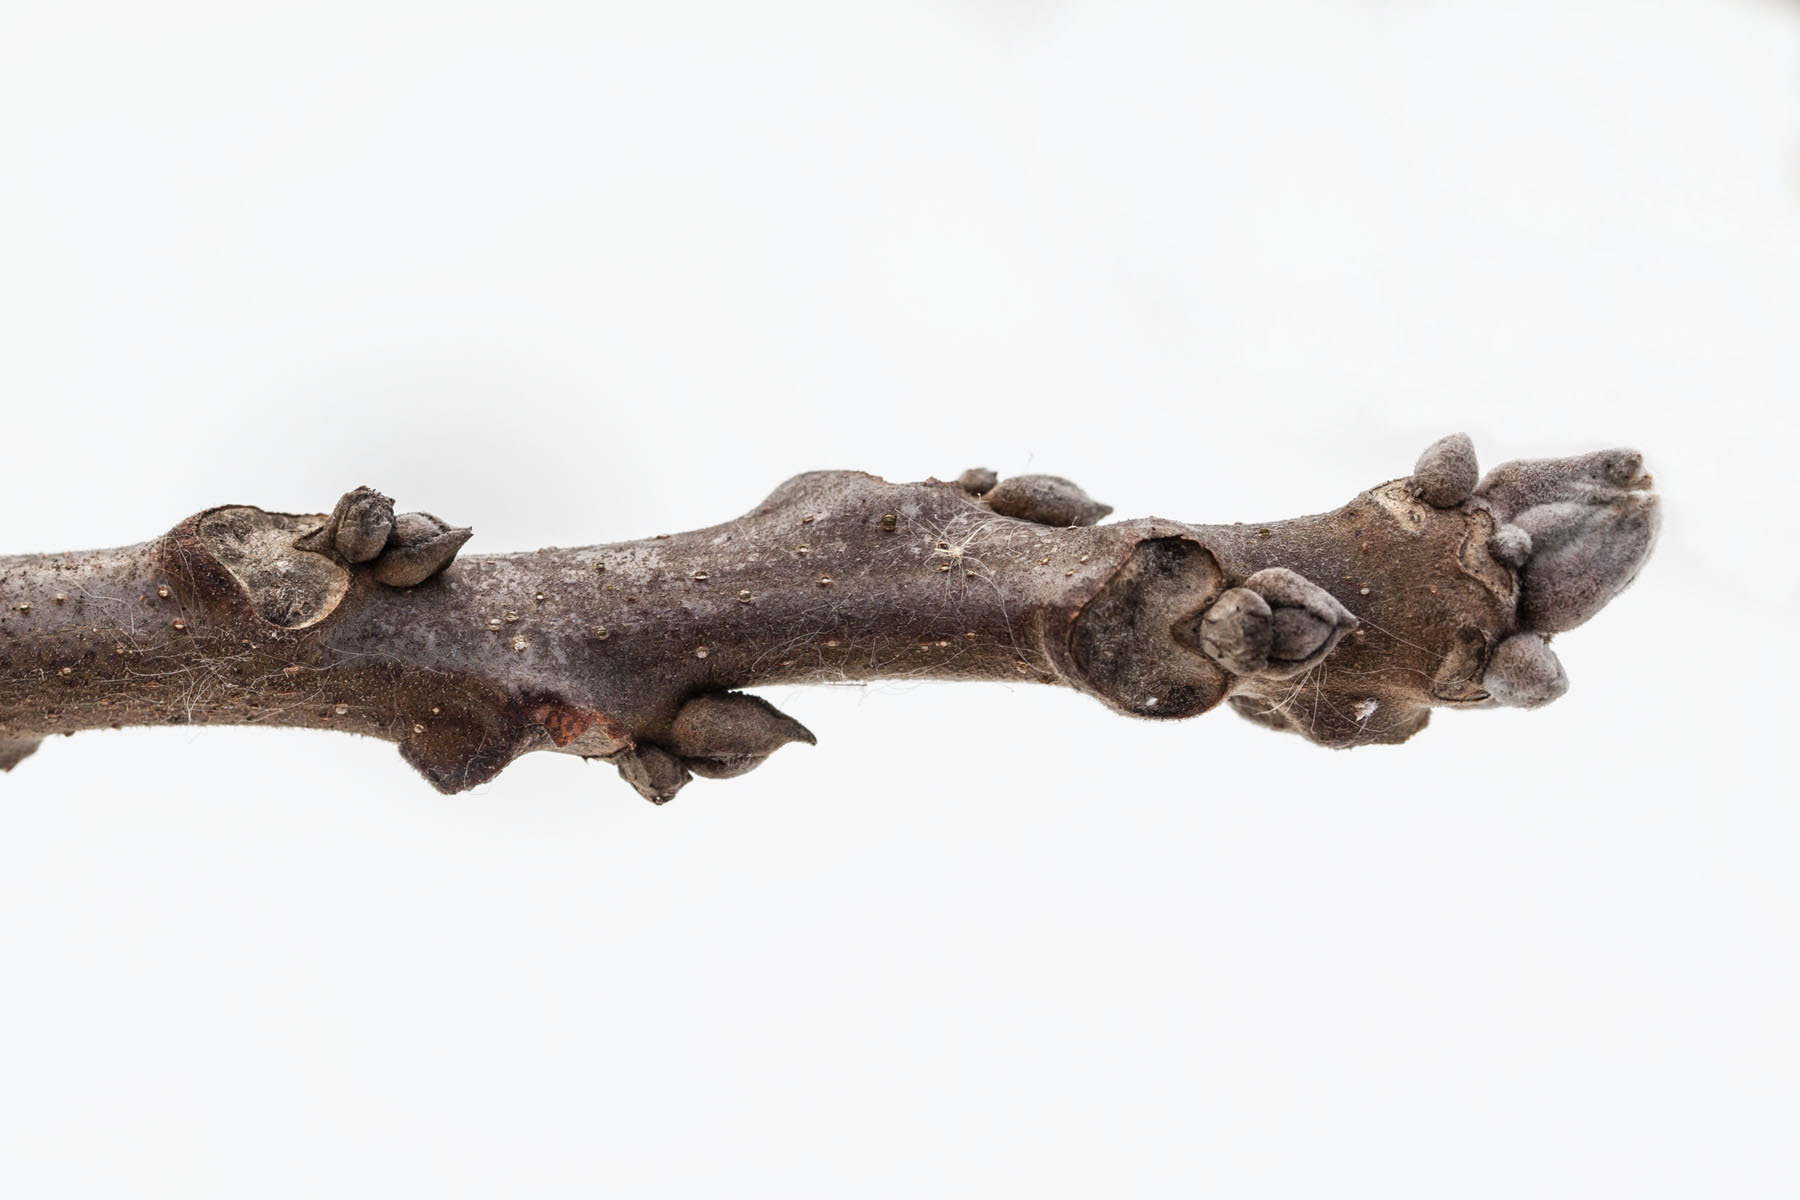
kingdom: Plantae
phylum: Tracheophyta
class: Magnoliopsida
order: Fagales
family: Juglandaceae
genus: Juglans
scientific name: Juglans nigra
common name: Black walnut
